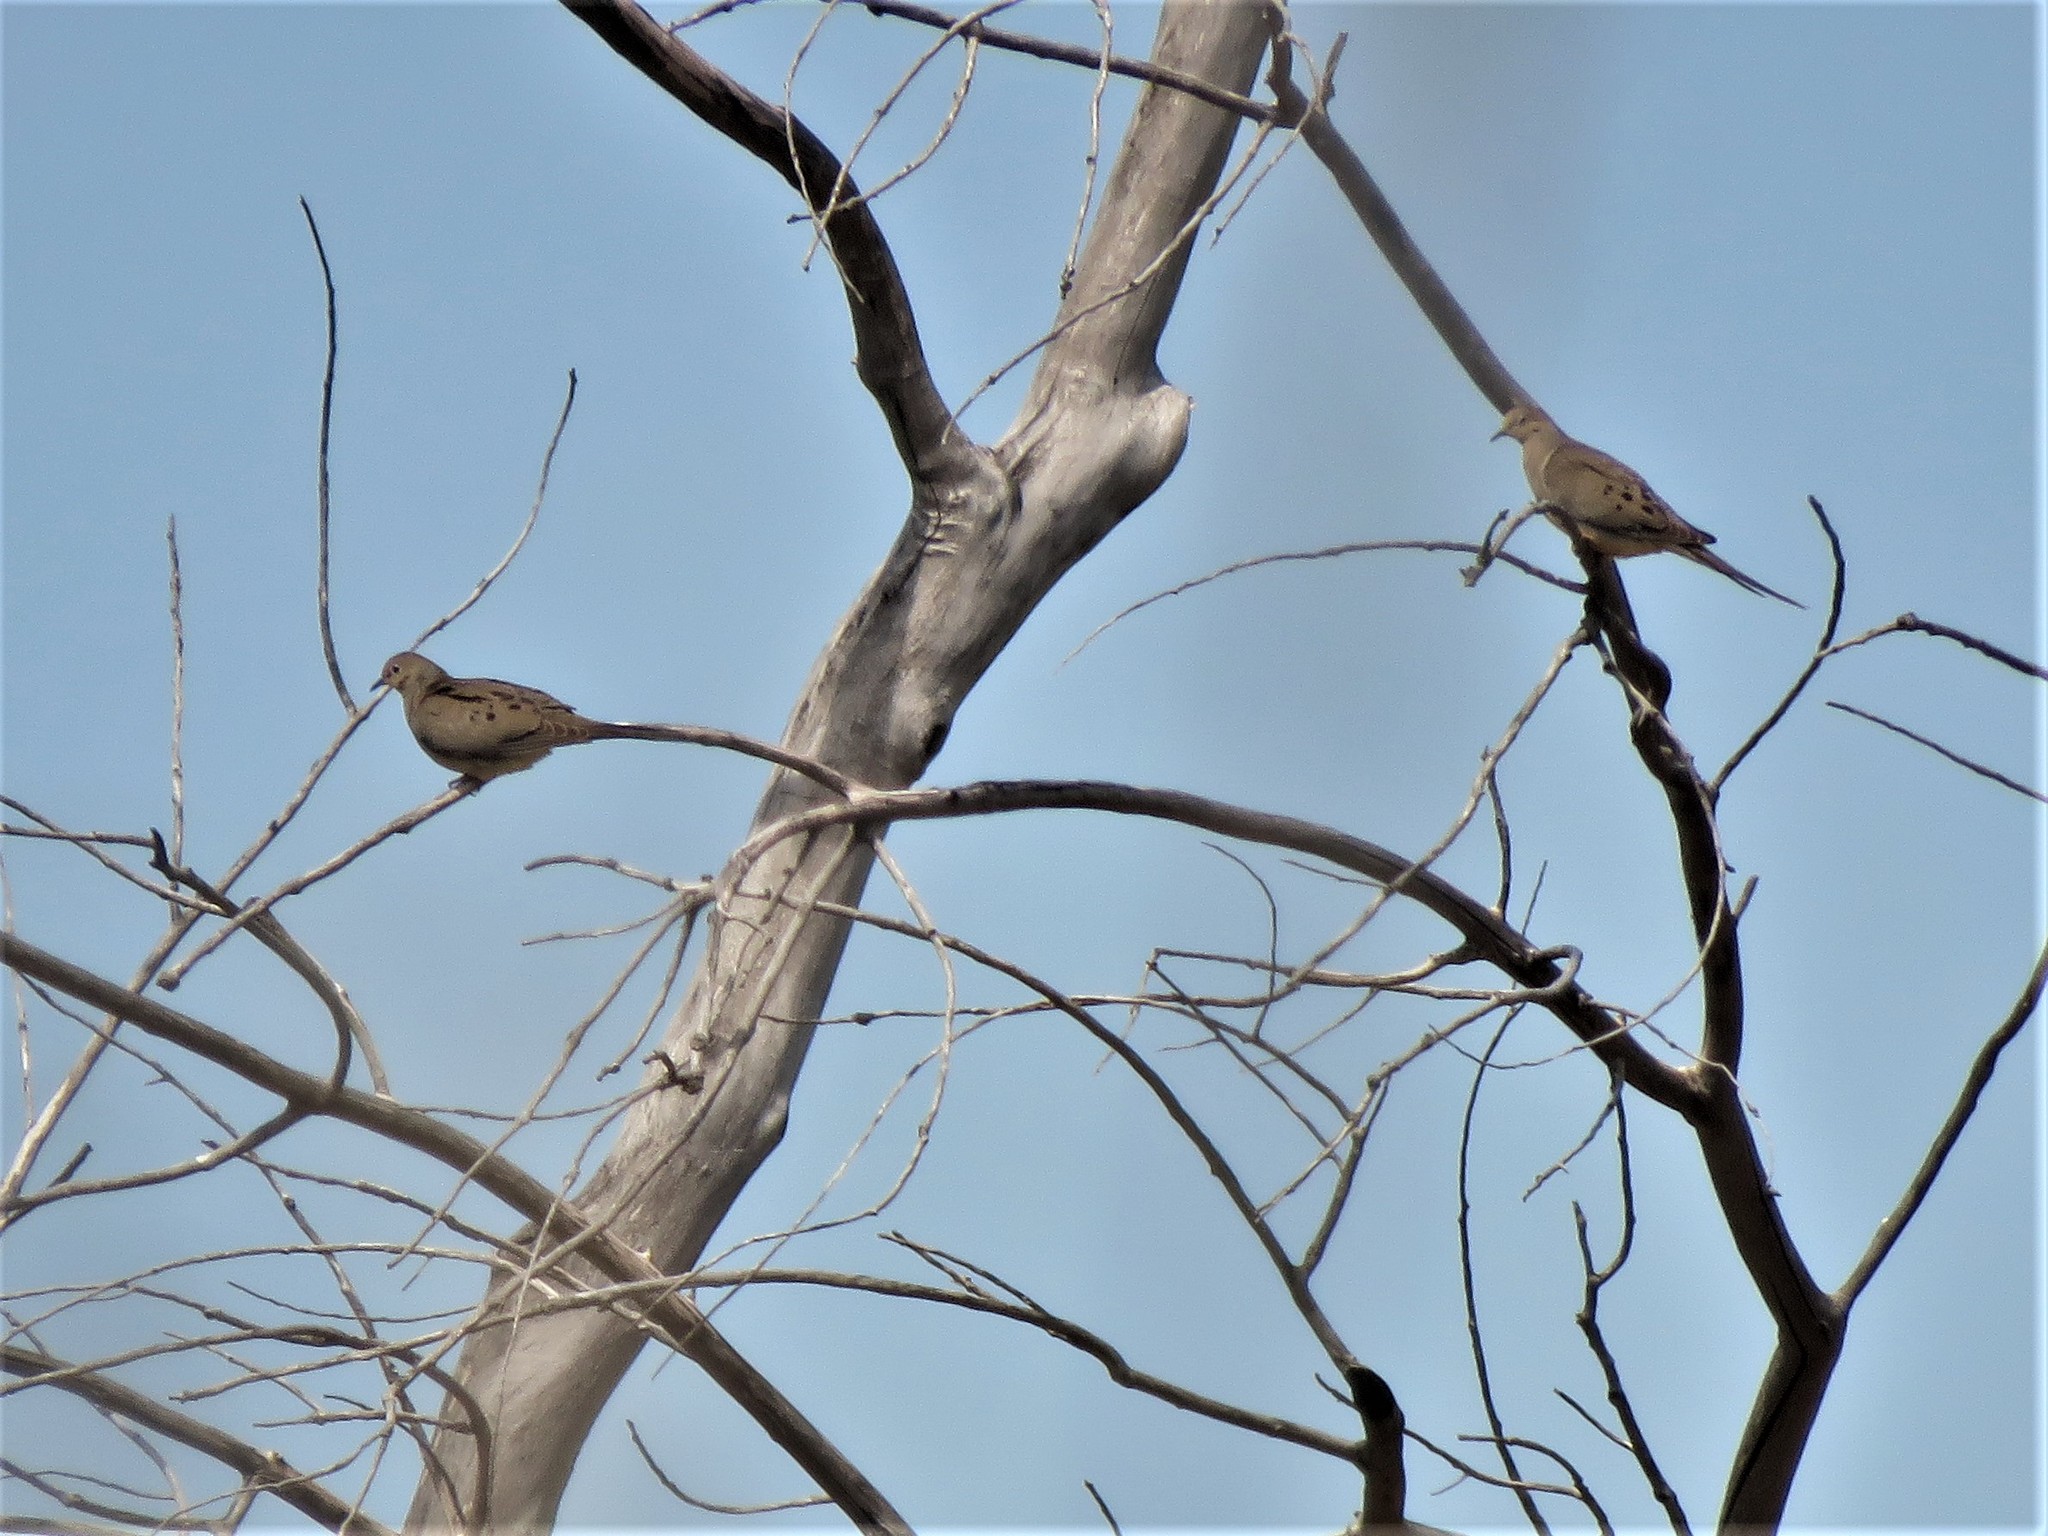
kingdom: Animalia
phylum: Chordata
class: Aves
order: Columbiformes
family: Columbidae
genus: Zenaida
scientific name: Zenaida macroura
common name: Mourning dove
